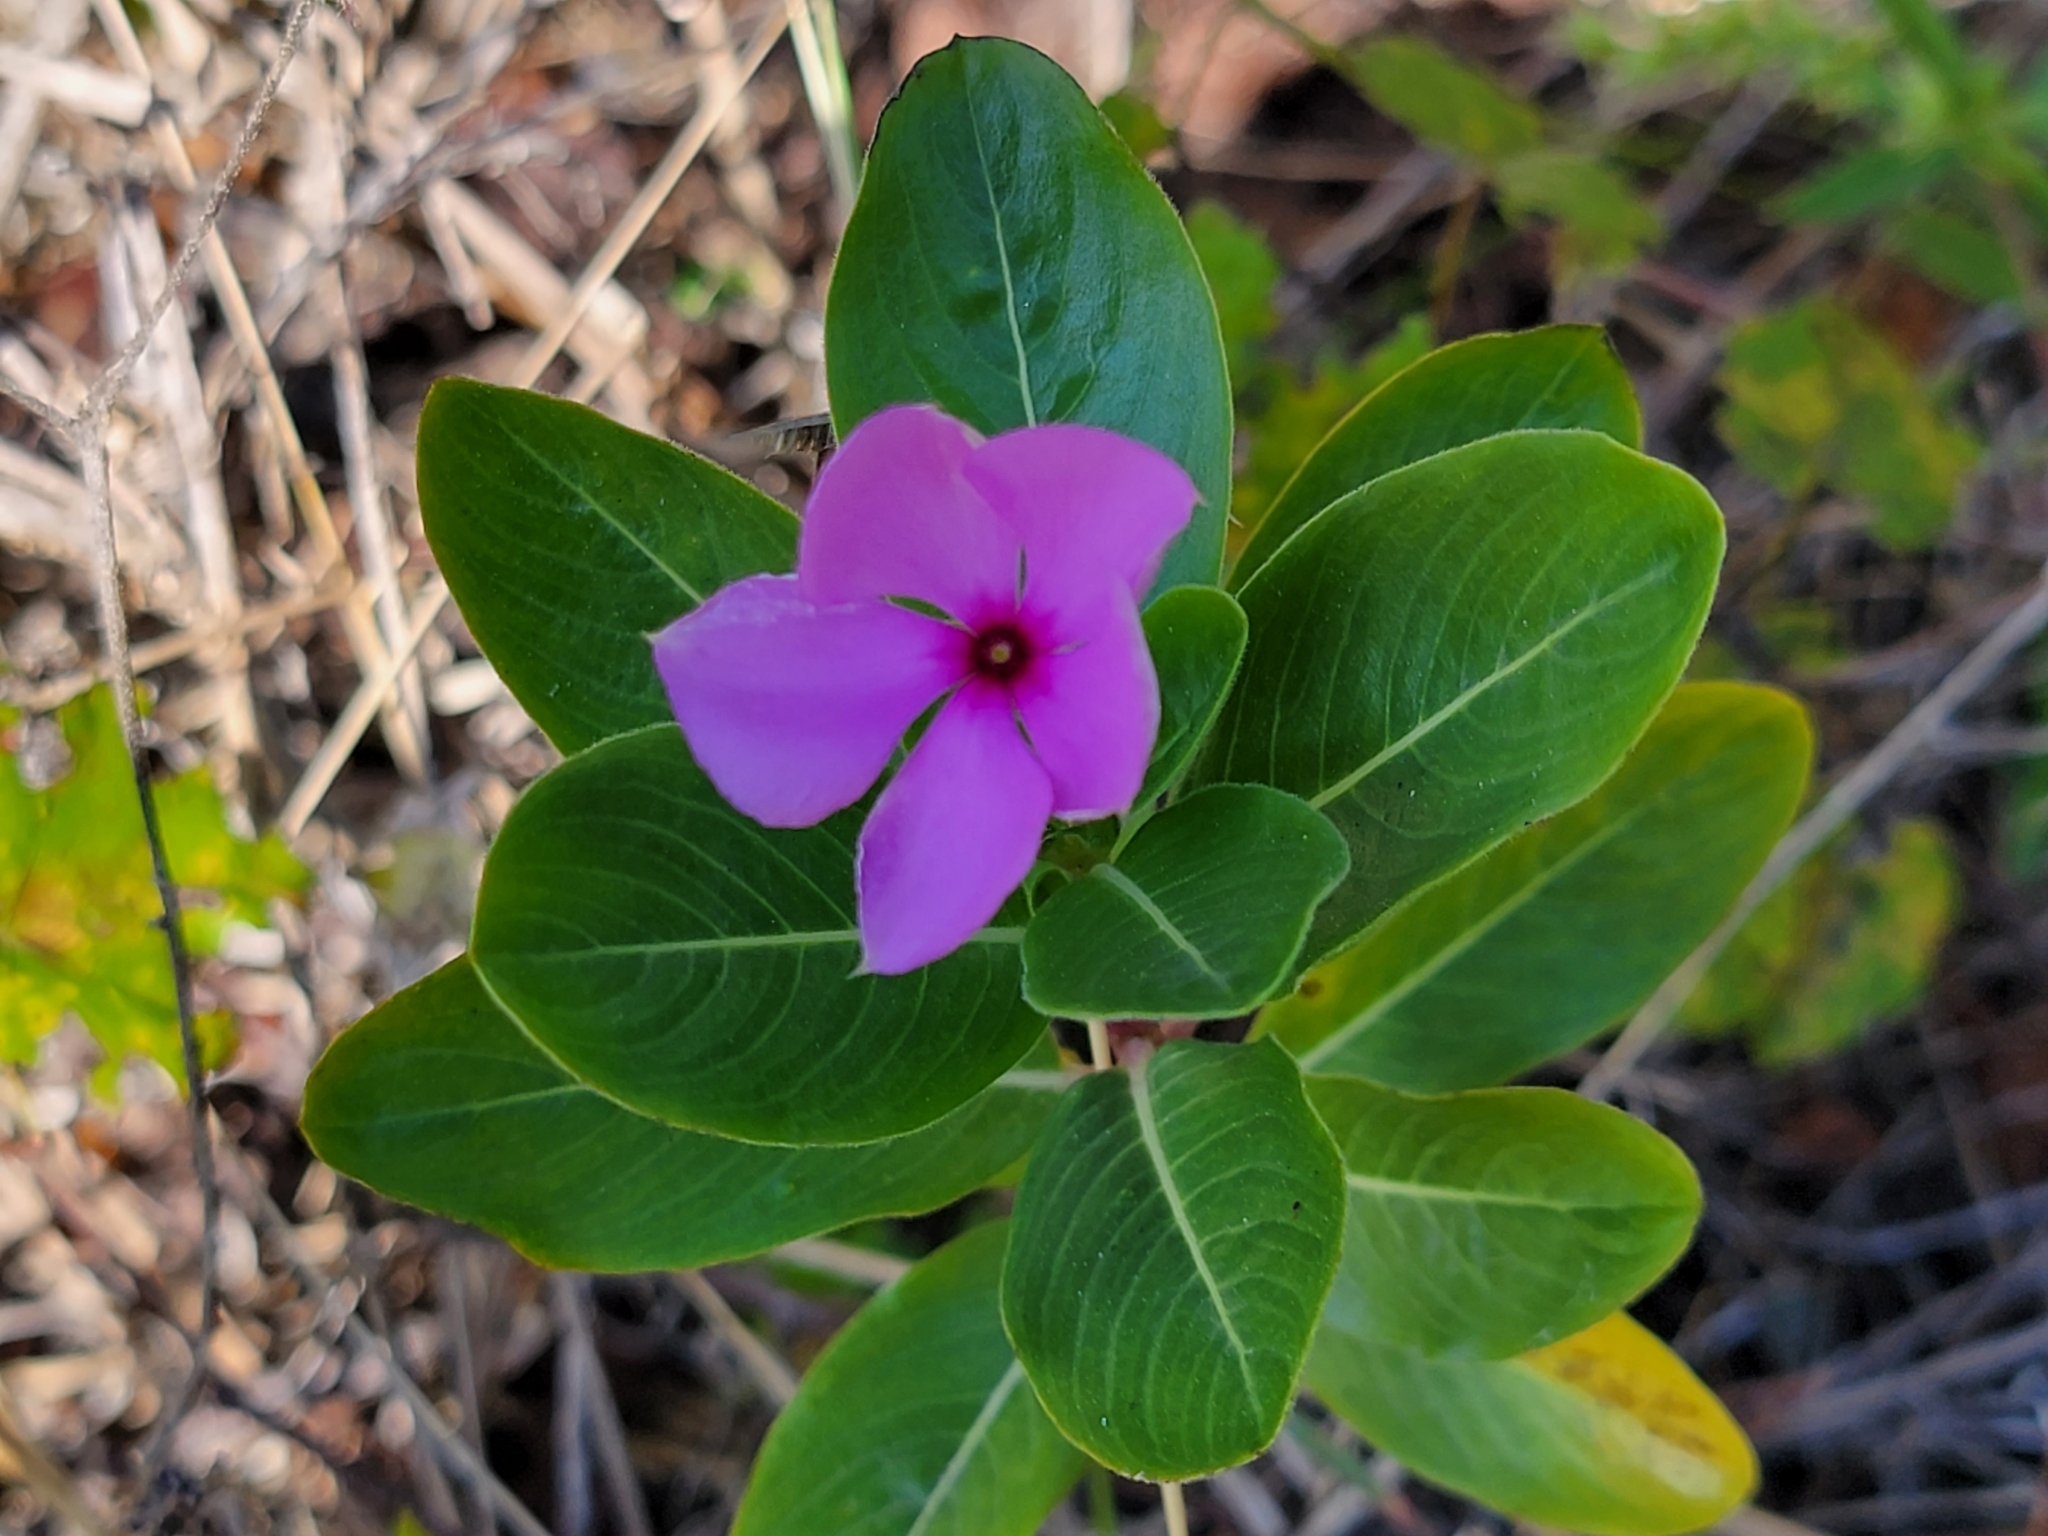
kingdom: Plantae
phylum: Tracheophyta
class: Magnoliopsida
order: Gentianales
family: Apocynaceae
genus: Catharanthus
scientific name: Catharanthus roseus
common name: Madagascar periwinkle
